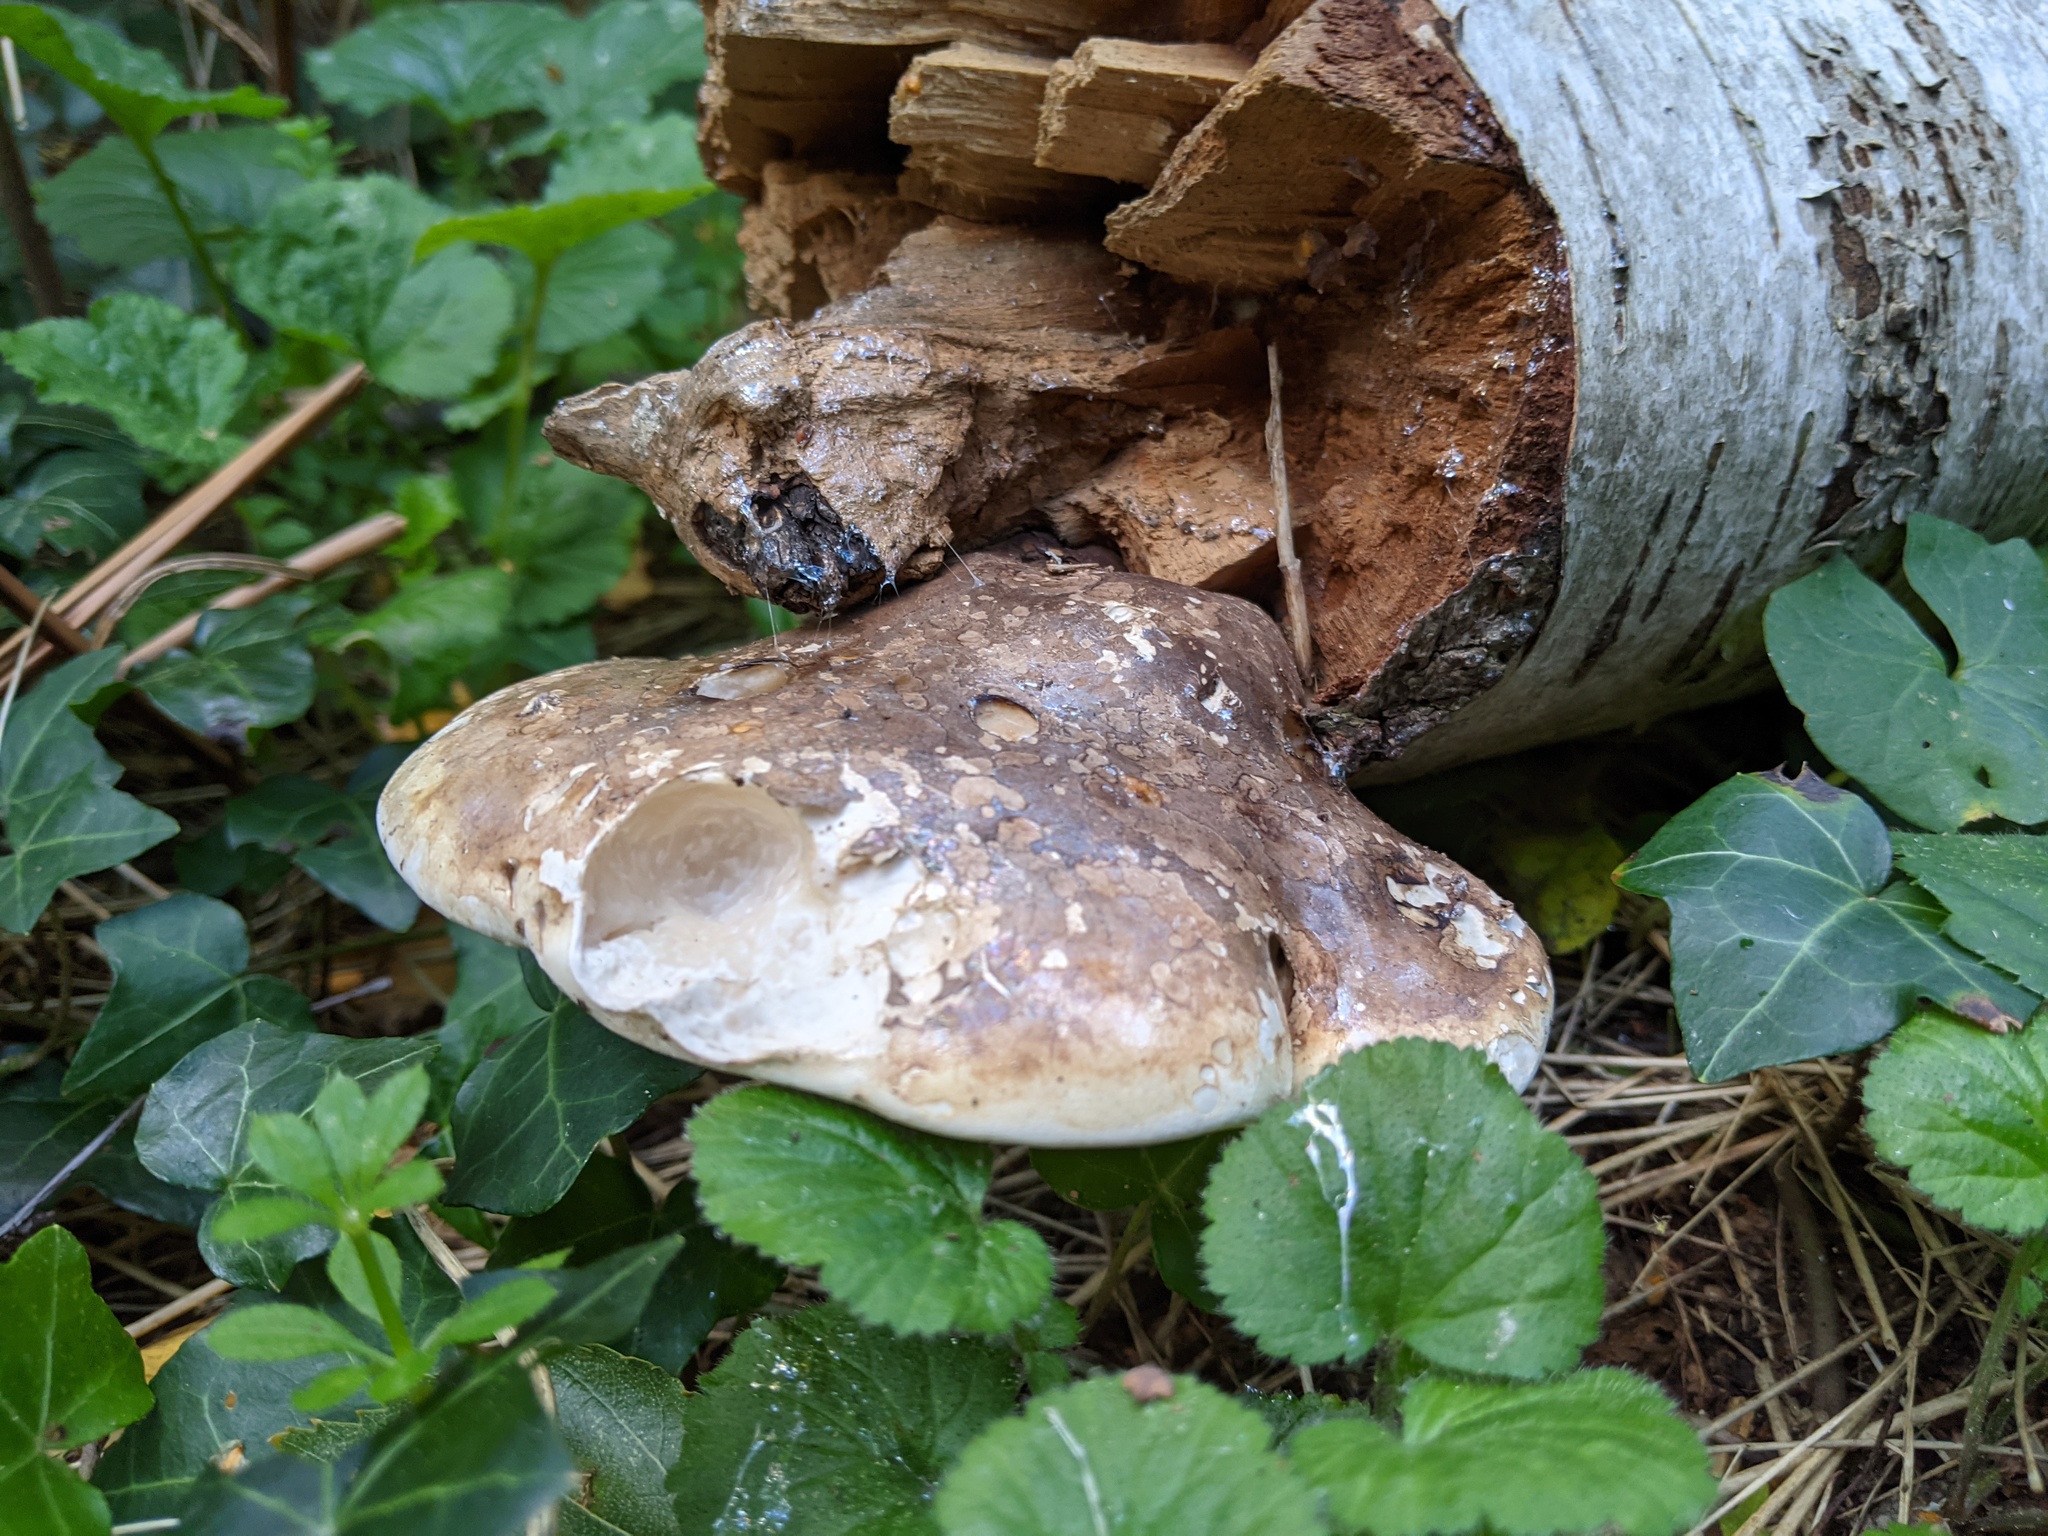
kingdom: Fungi
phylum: Basidiomycota
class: Agaricomycetes
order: Polyporales
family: Fomitopsidaceae
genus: Fomitopsis
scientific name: Fomitopsis betulina
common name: Birch polypore
